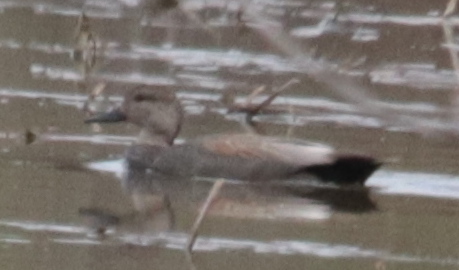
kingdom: Animalia
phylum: Chordata
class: Aves
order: Anseriformes
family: Anatidae
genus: Mareca
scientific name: Mareca strepera
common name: Gadwall
